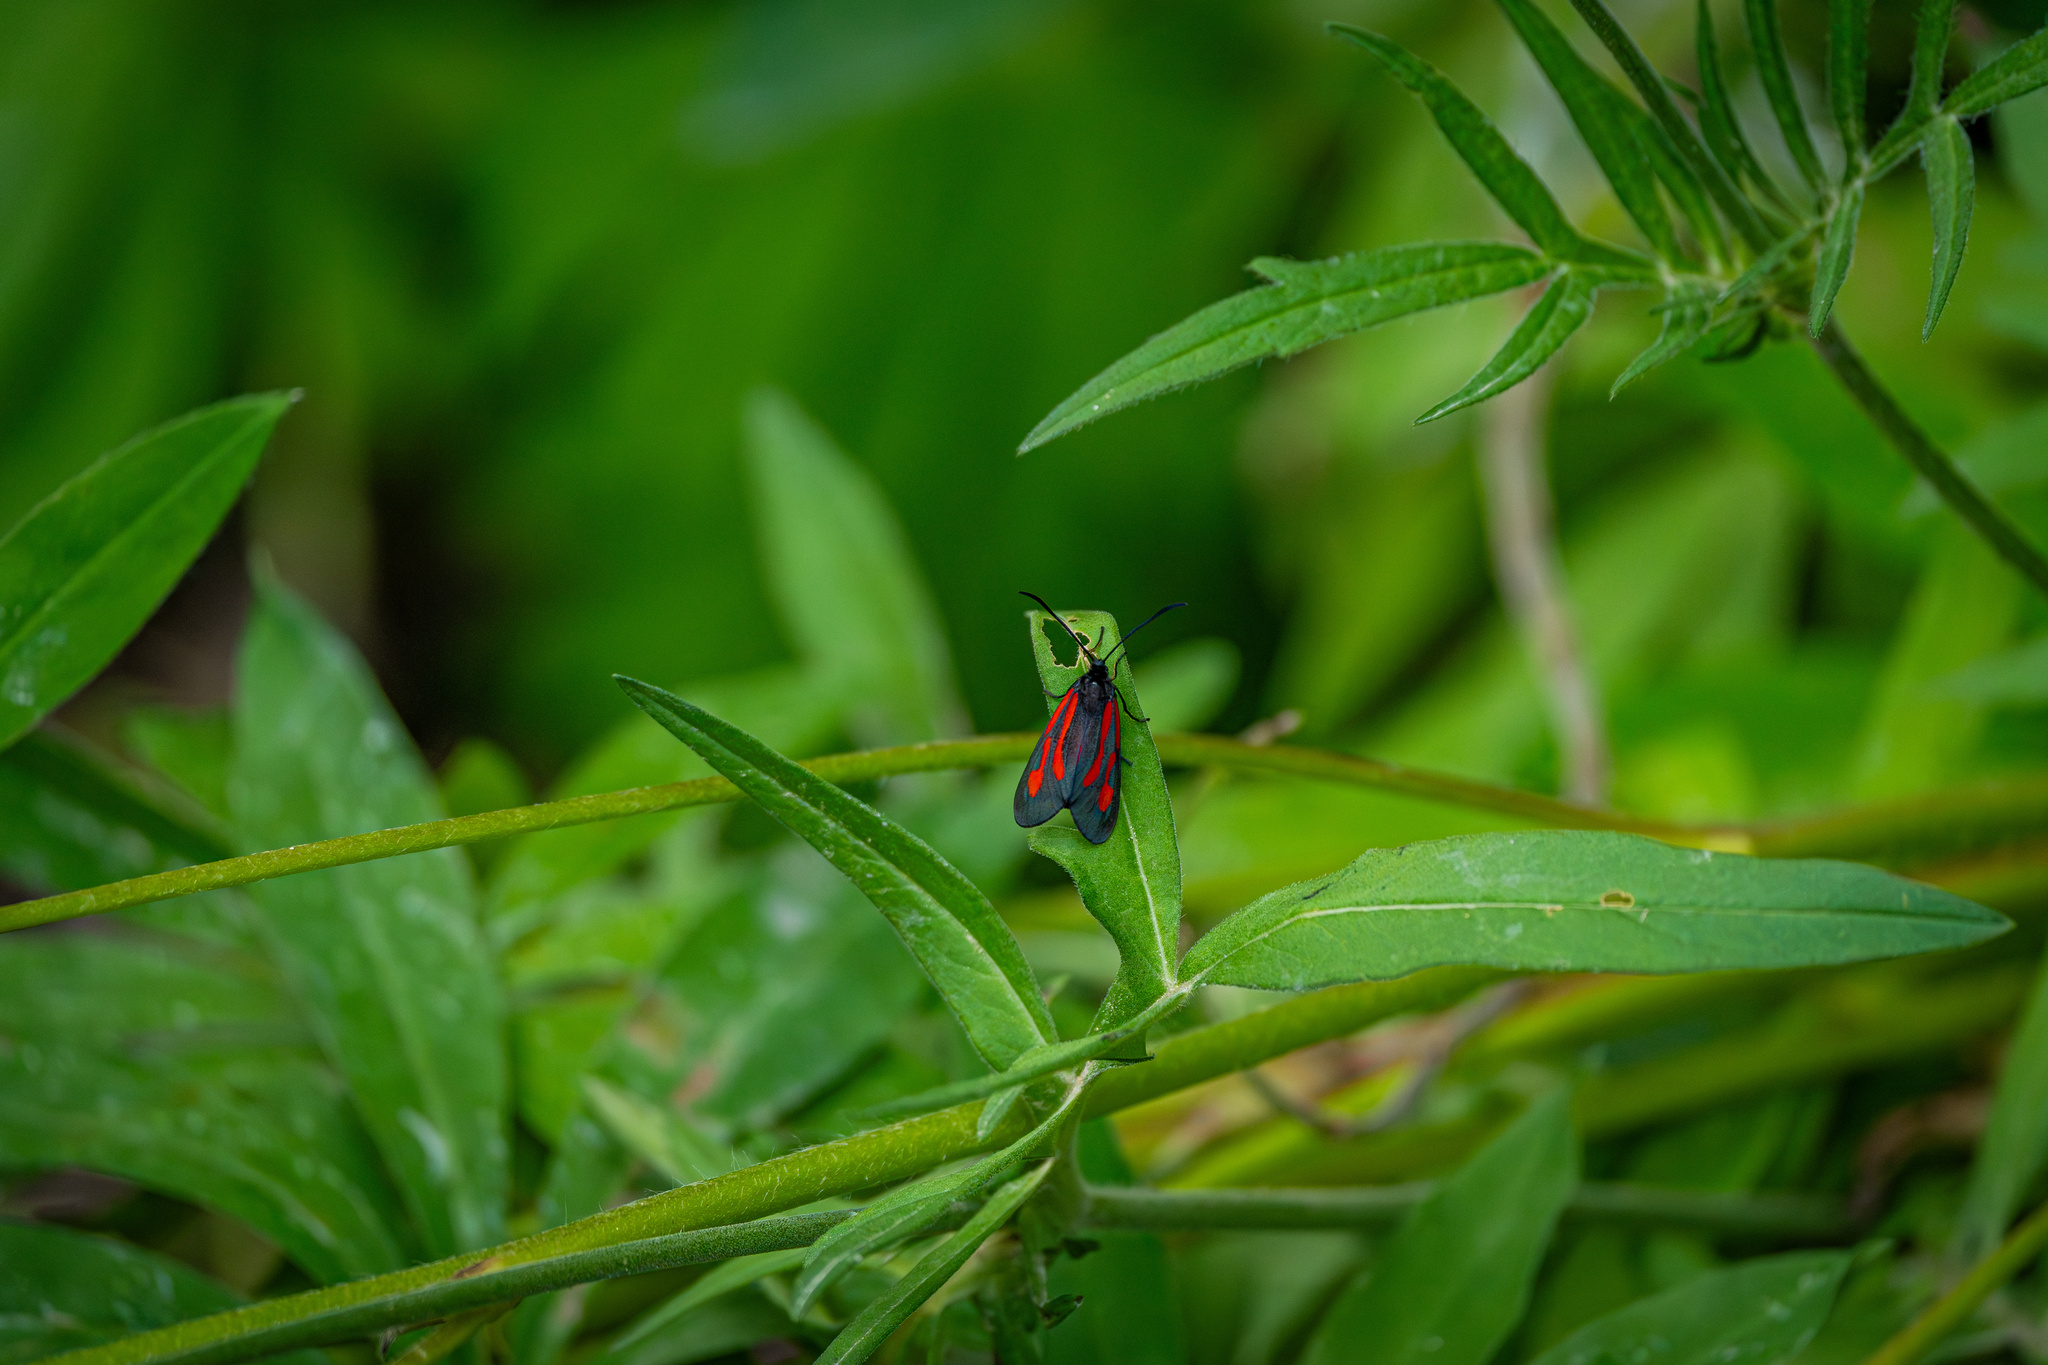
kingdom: Animalia
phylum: Arthropoda
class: Insecta
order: Lepidoptera
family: Zygaenidae
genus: Zygaena
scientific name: Zygaena osterodensis
